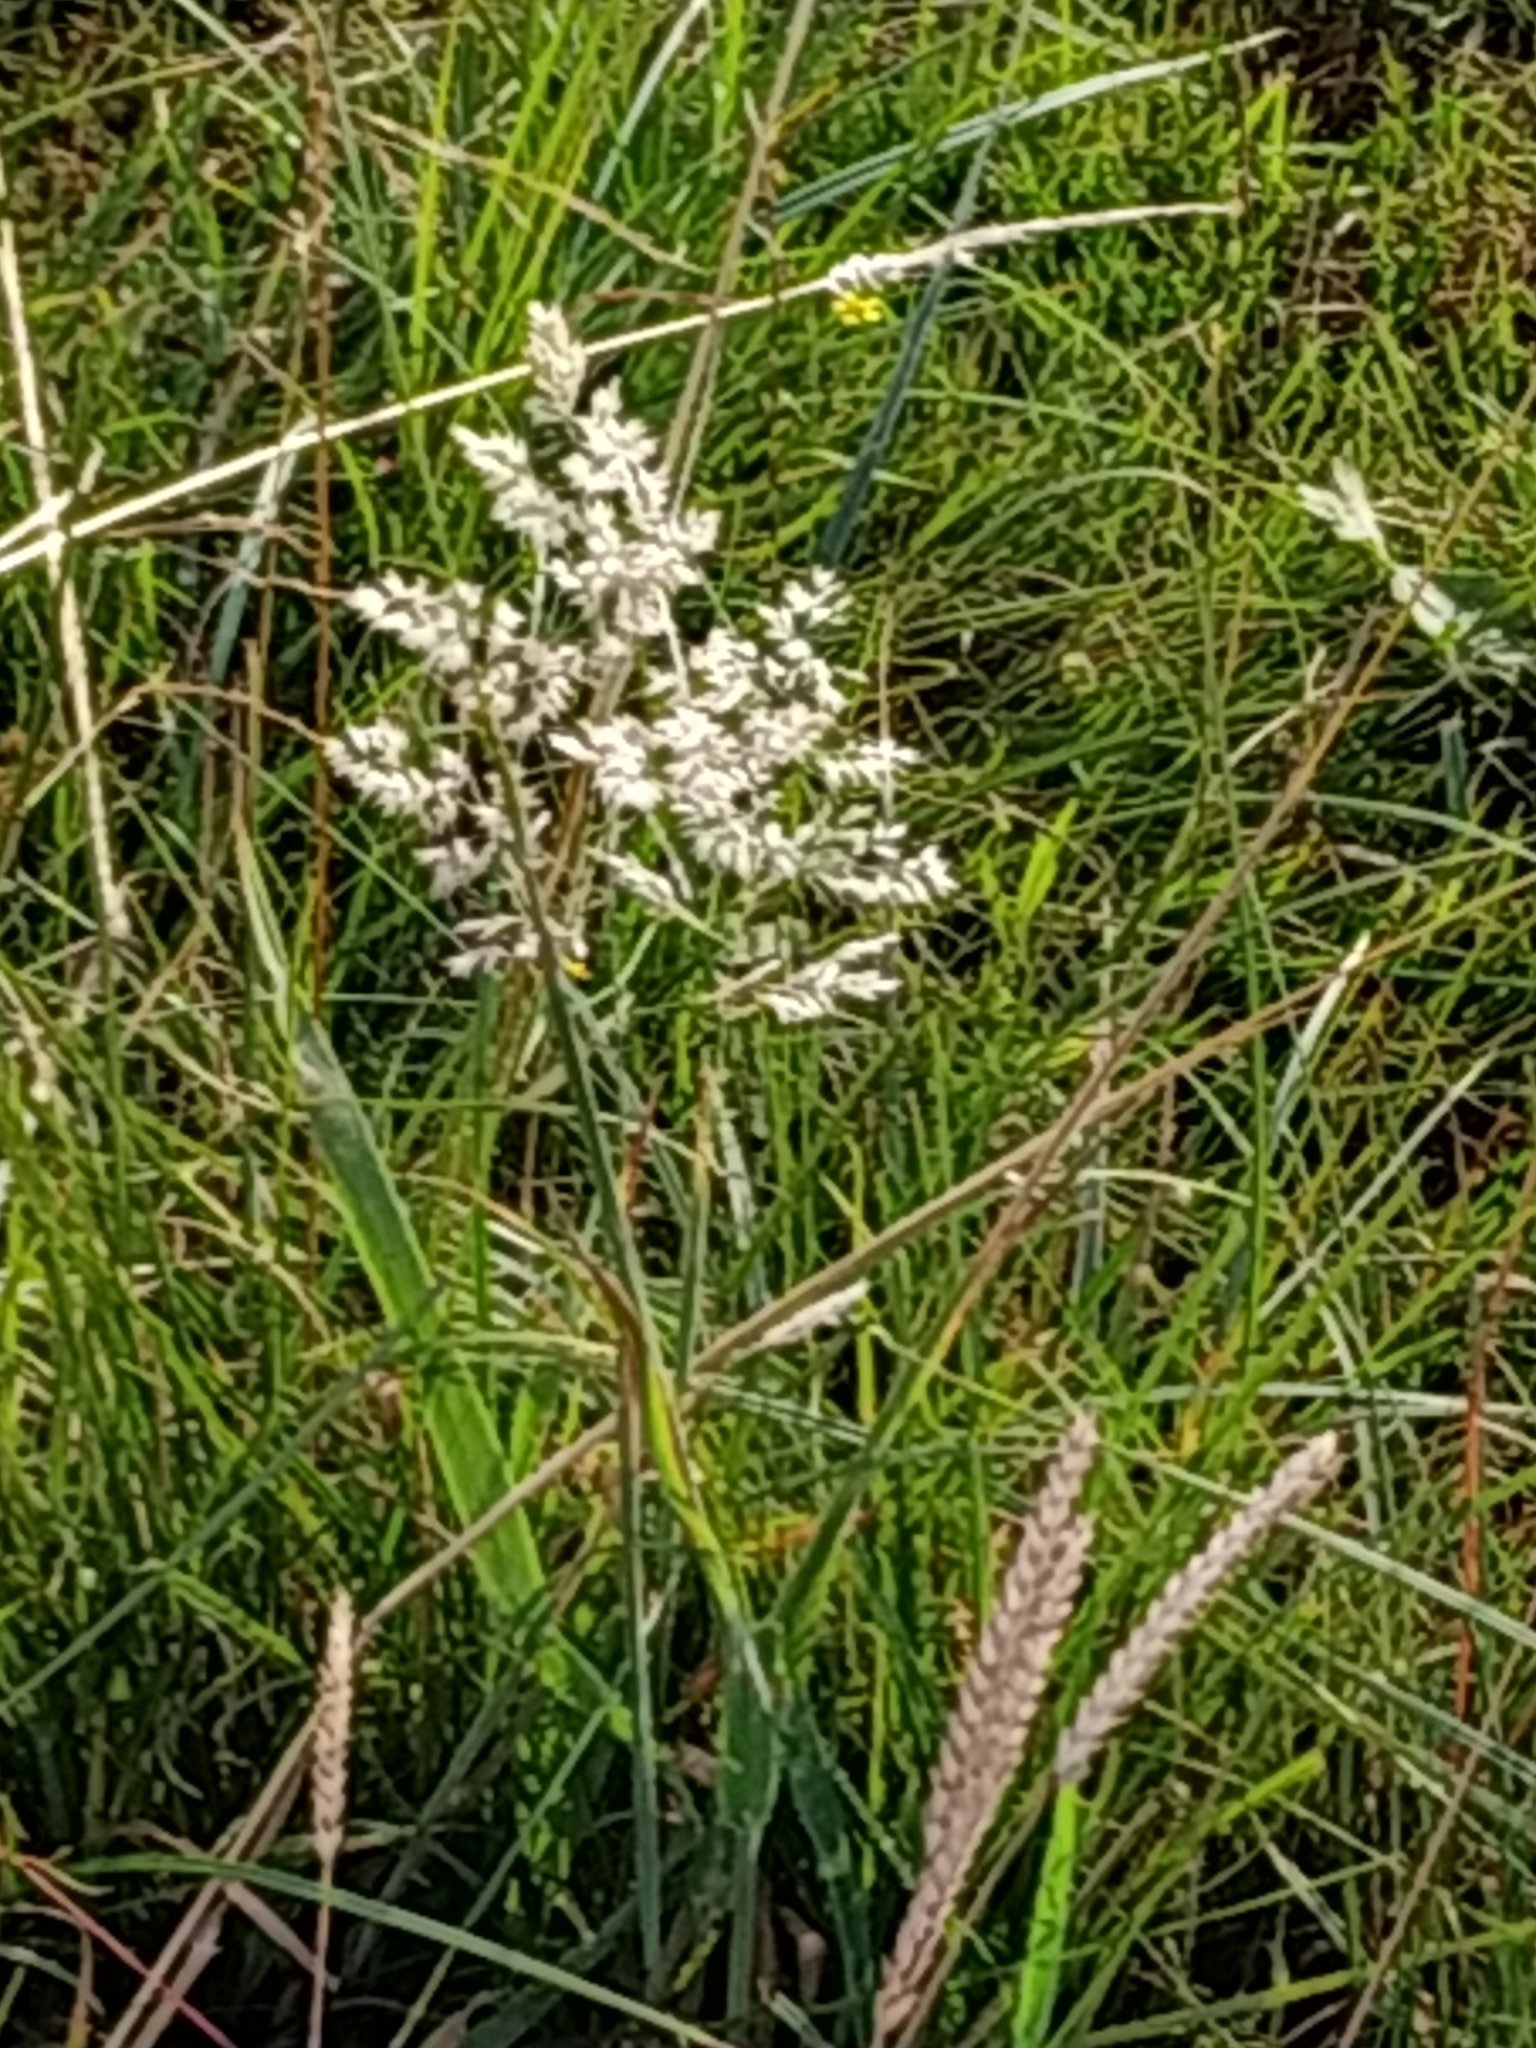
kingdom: Plantae
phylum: Tracheophyta
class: Liliopsida
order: Poales
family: Poaceae
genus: Holcus
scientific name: Holcus lanatus
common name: Yorkshire-fog
